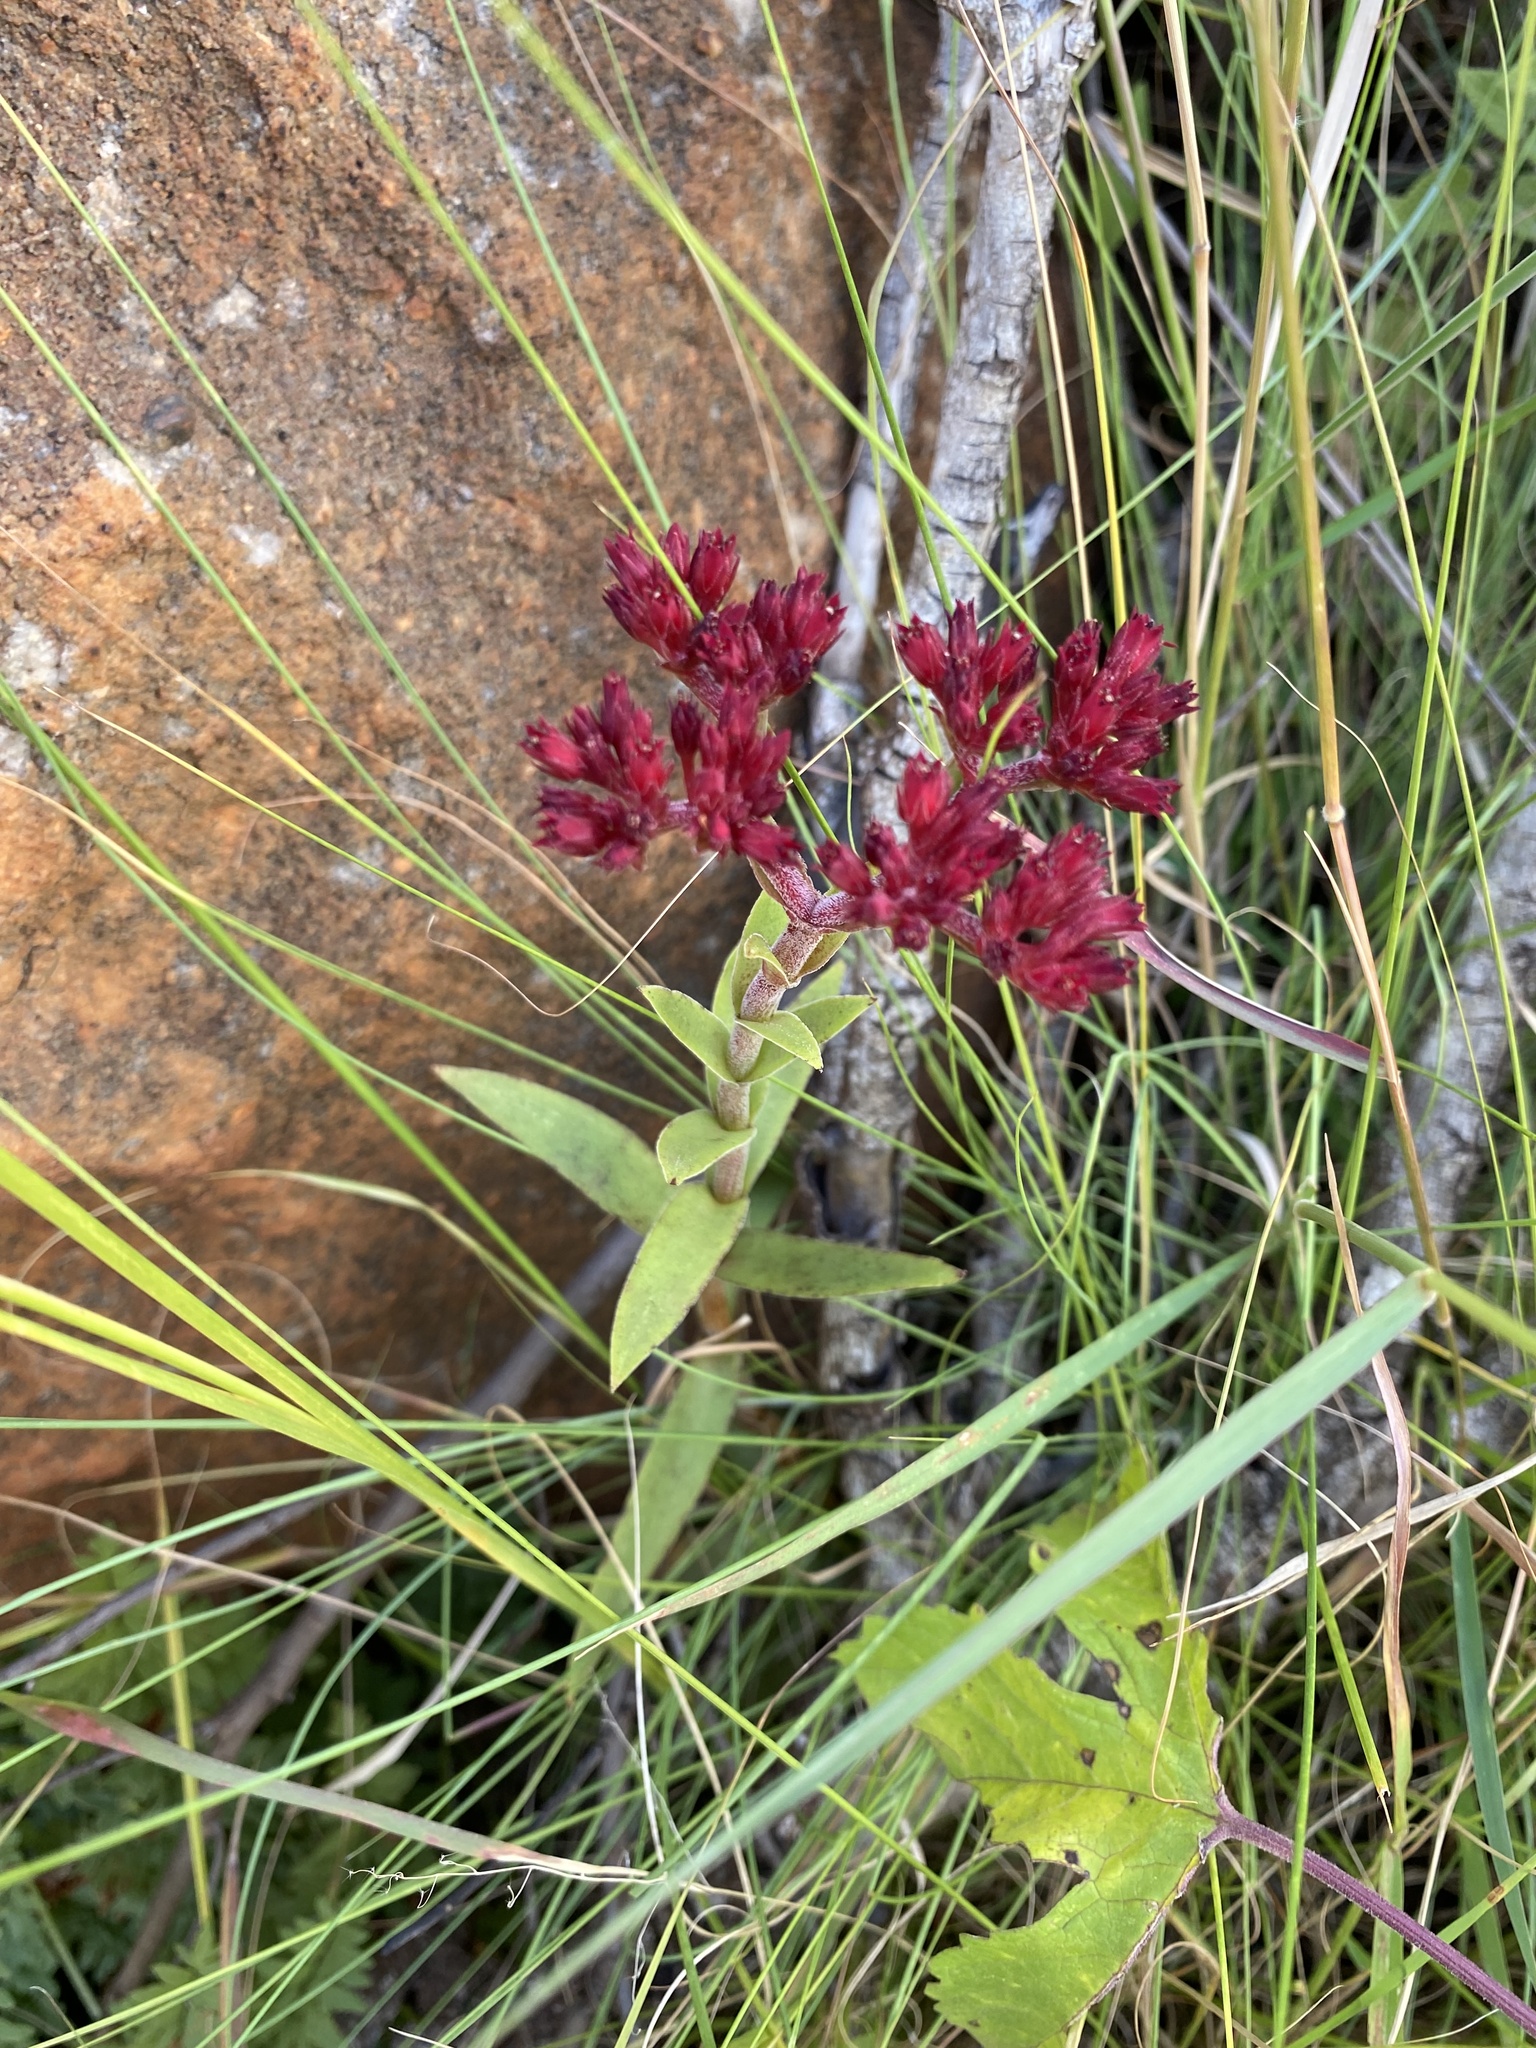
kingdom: Plantae
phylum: Tracheophyta
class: Magnoliopsida
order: Saxifragales
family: Crassulaceae
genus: Crassula
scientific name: Crassula alba
